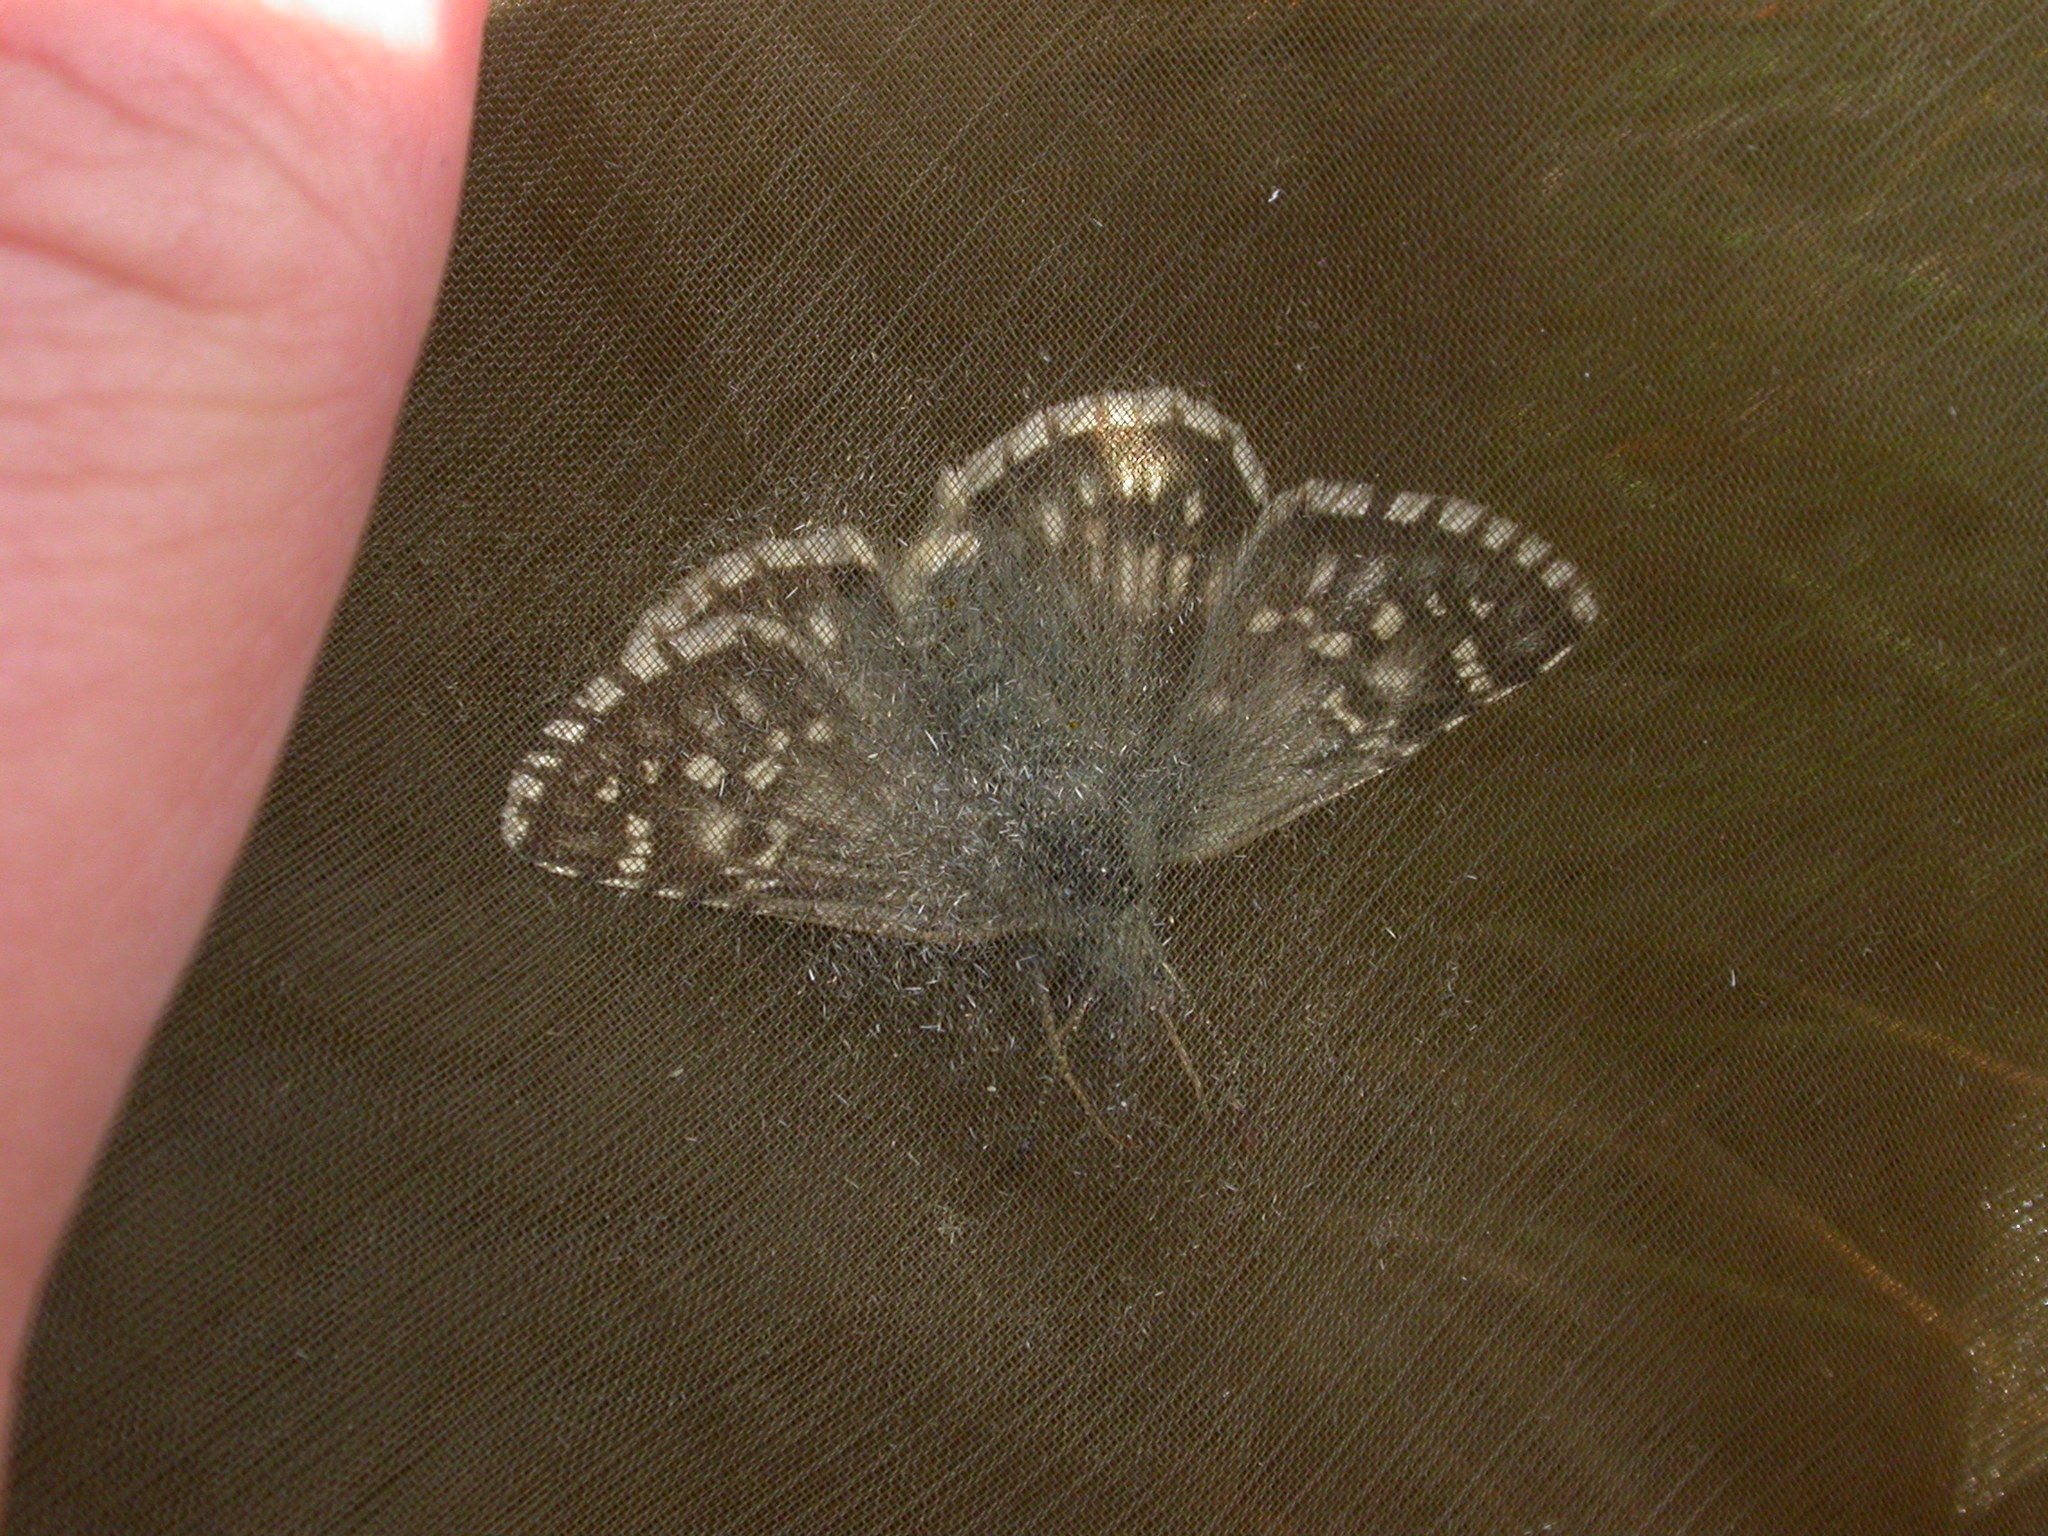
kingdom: Animalia
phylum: Arthropoda
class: Insecta
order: Lepidoptera
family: Hesperiidae
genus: Pyrgus
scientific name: Pyrgus fritillarius
